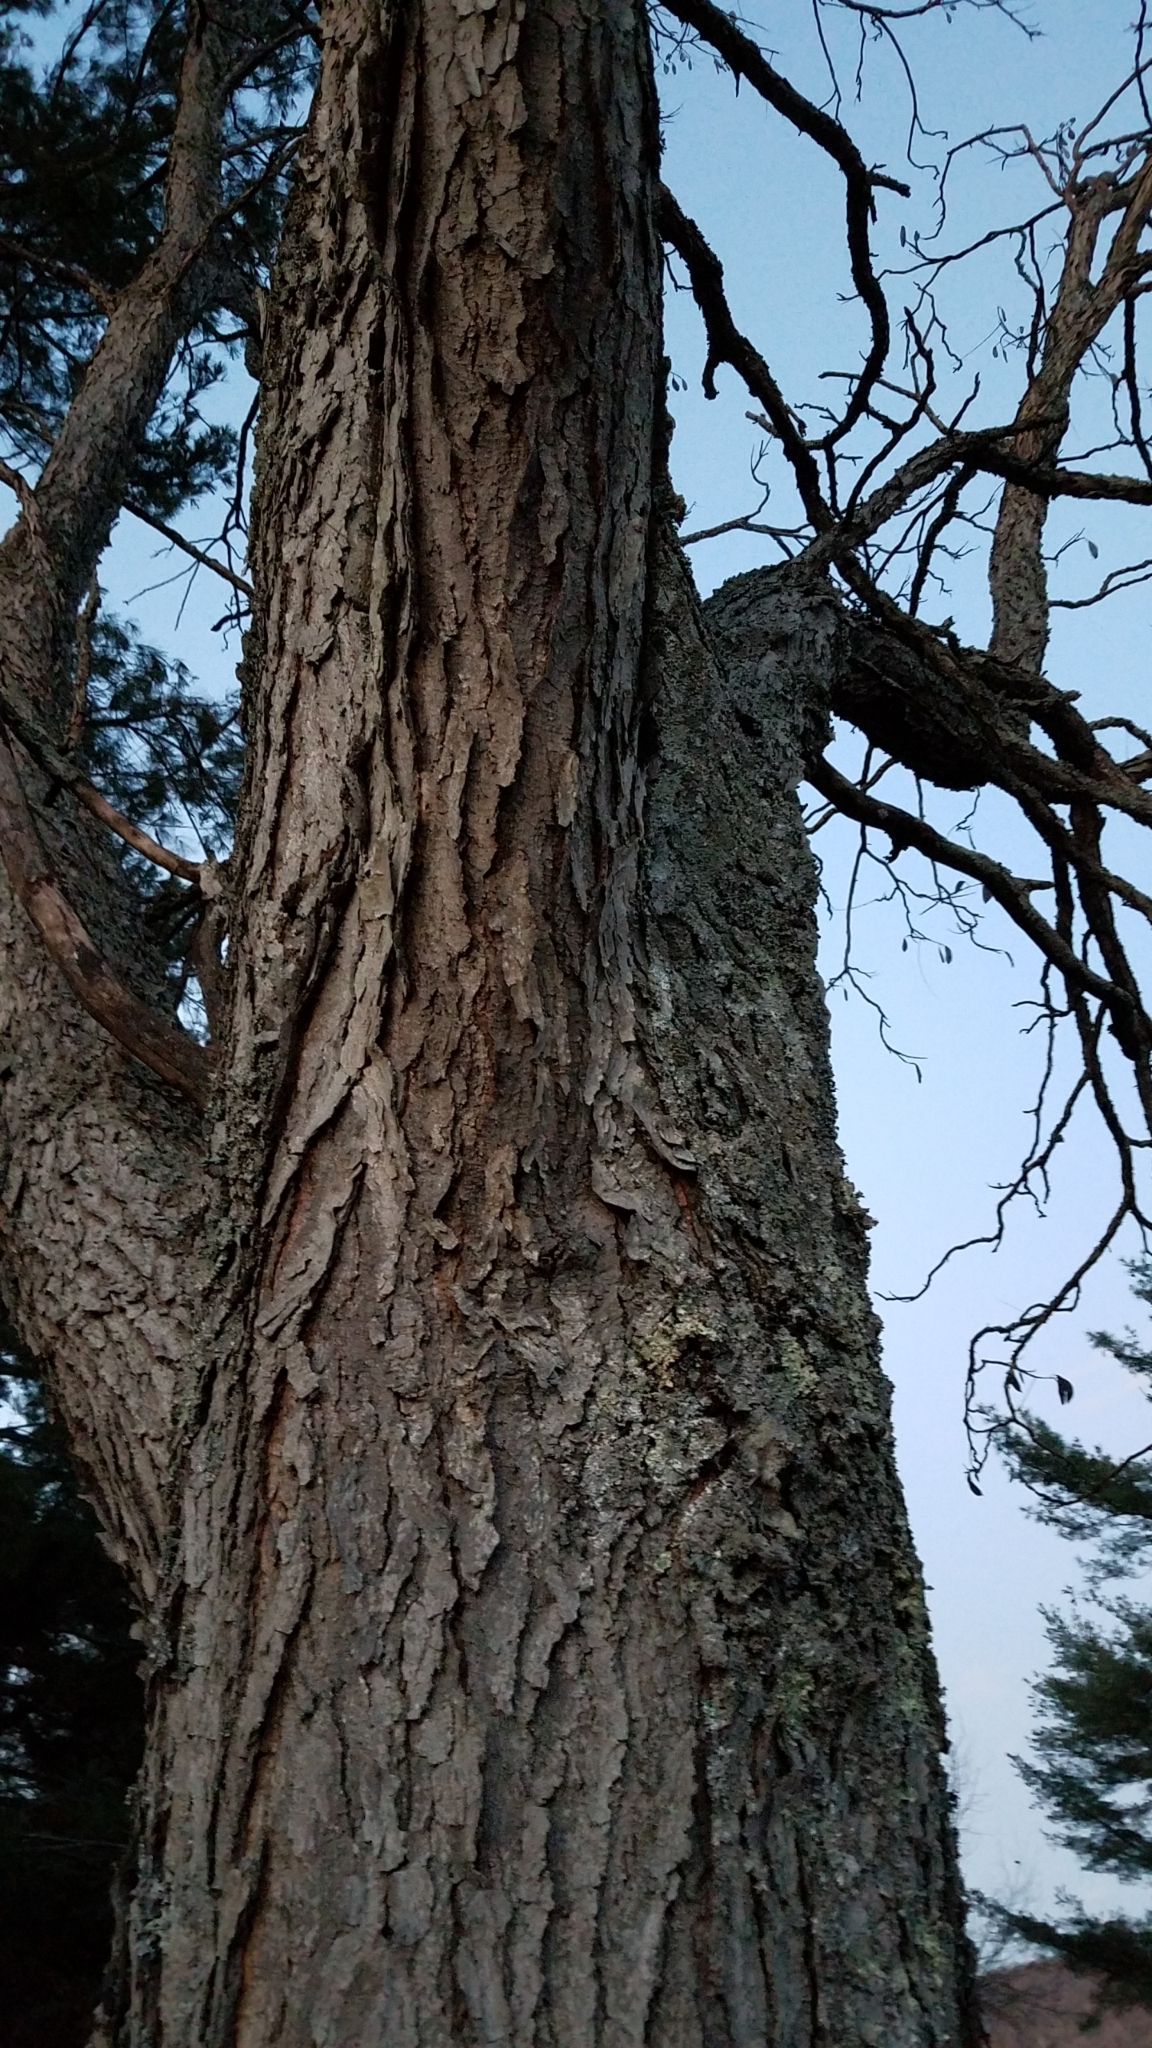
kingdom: Plantae
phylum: Tracheophyta
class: Magnoliopsida
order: Fabales
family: Fabaceae
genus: Gymnocladus
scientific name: Gymnocladus dioicus
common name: Kentucky coffee-tree
